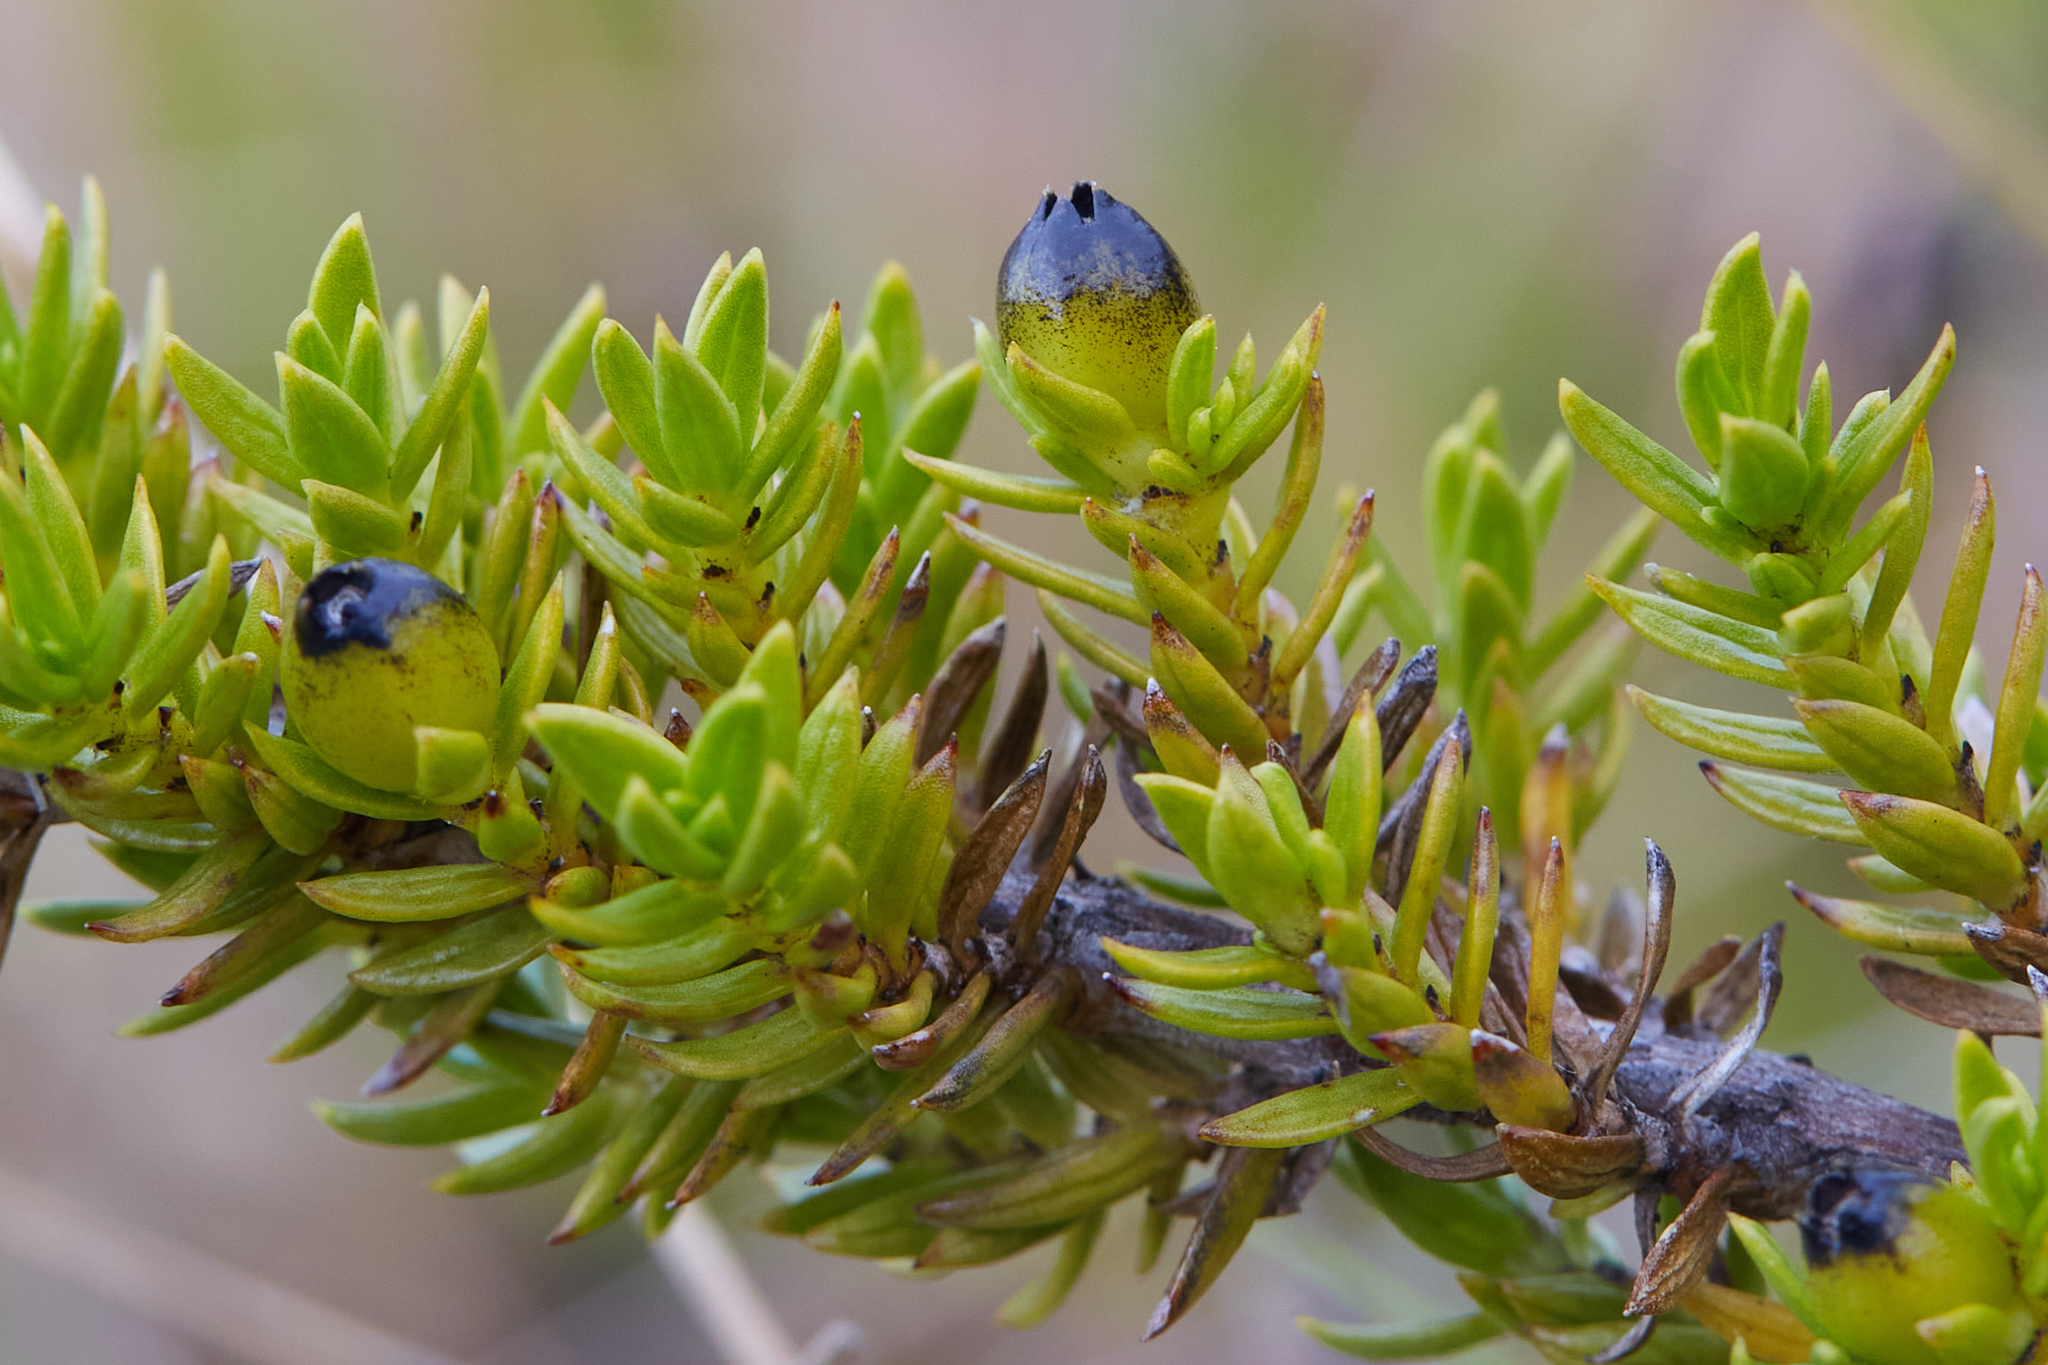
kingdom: Plantae
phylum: Tracheophyta
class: Magnoliopsida
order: Gentianales
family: Rubiaceae
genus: Coprosma
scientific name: Coprosma ernodeoides
